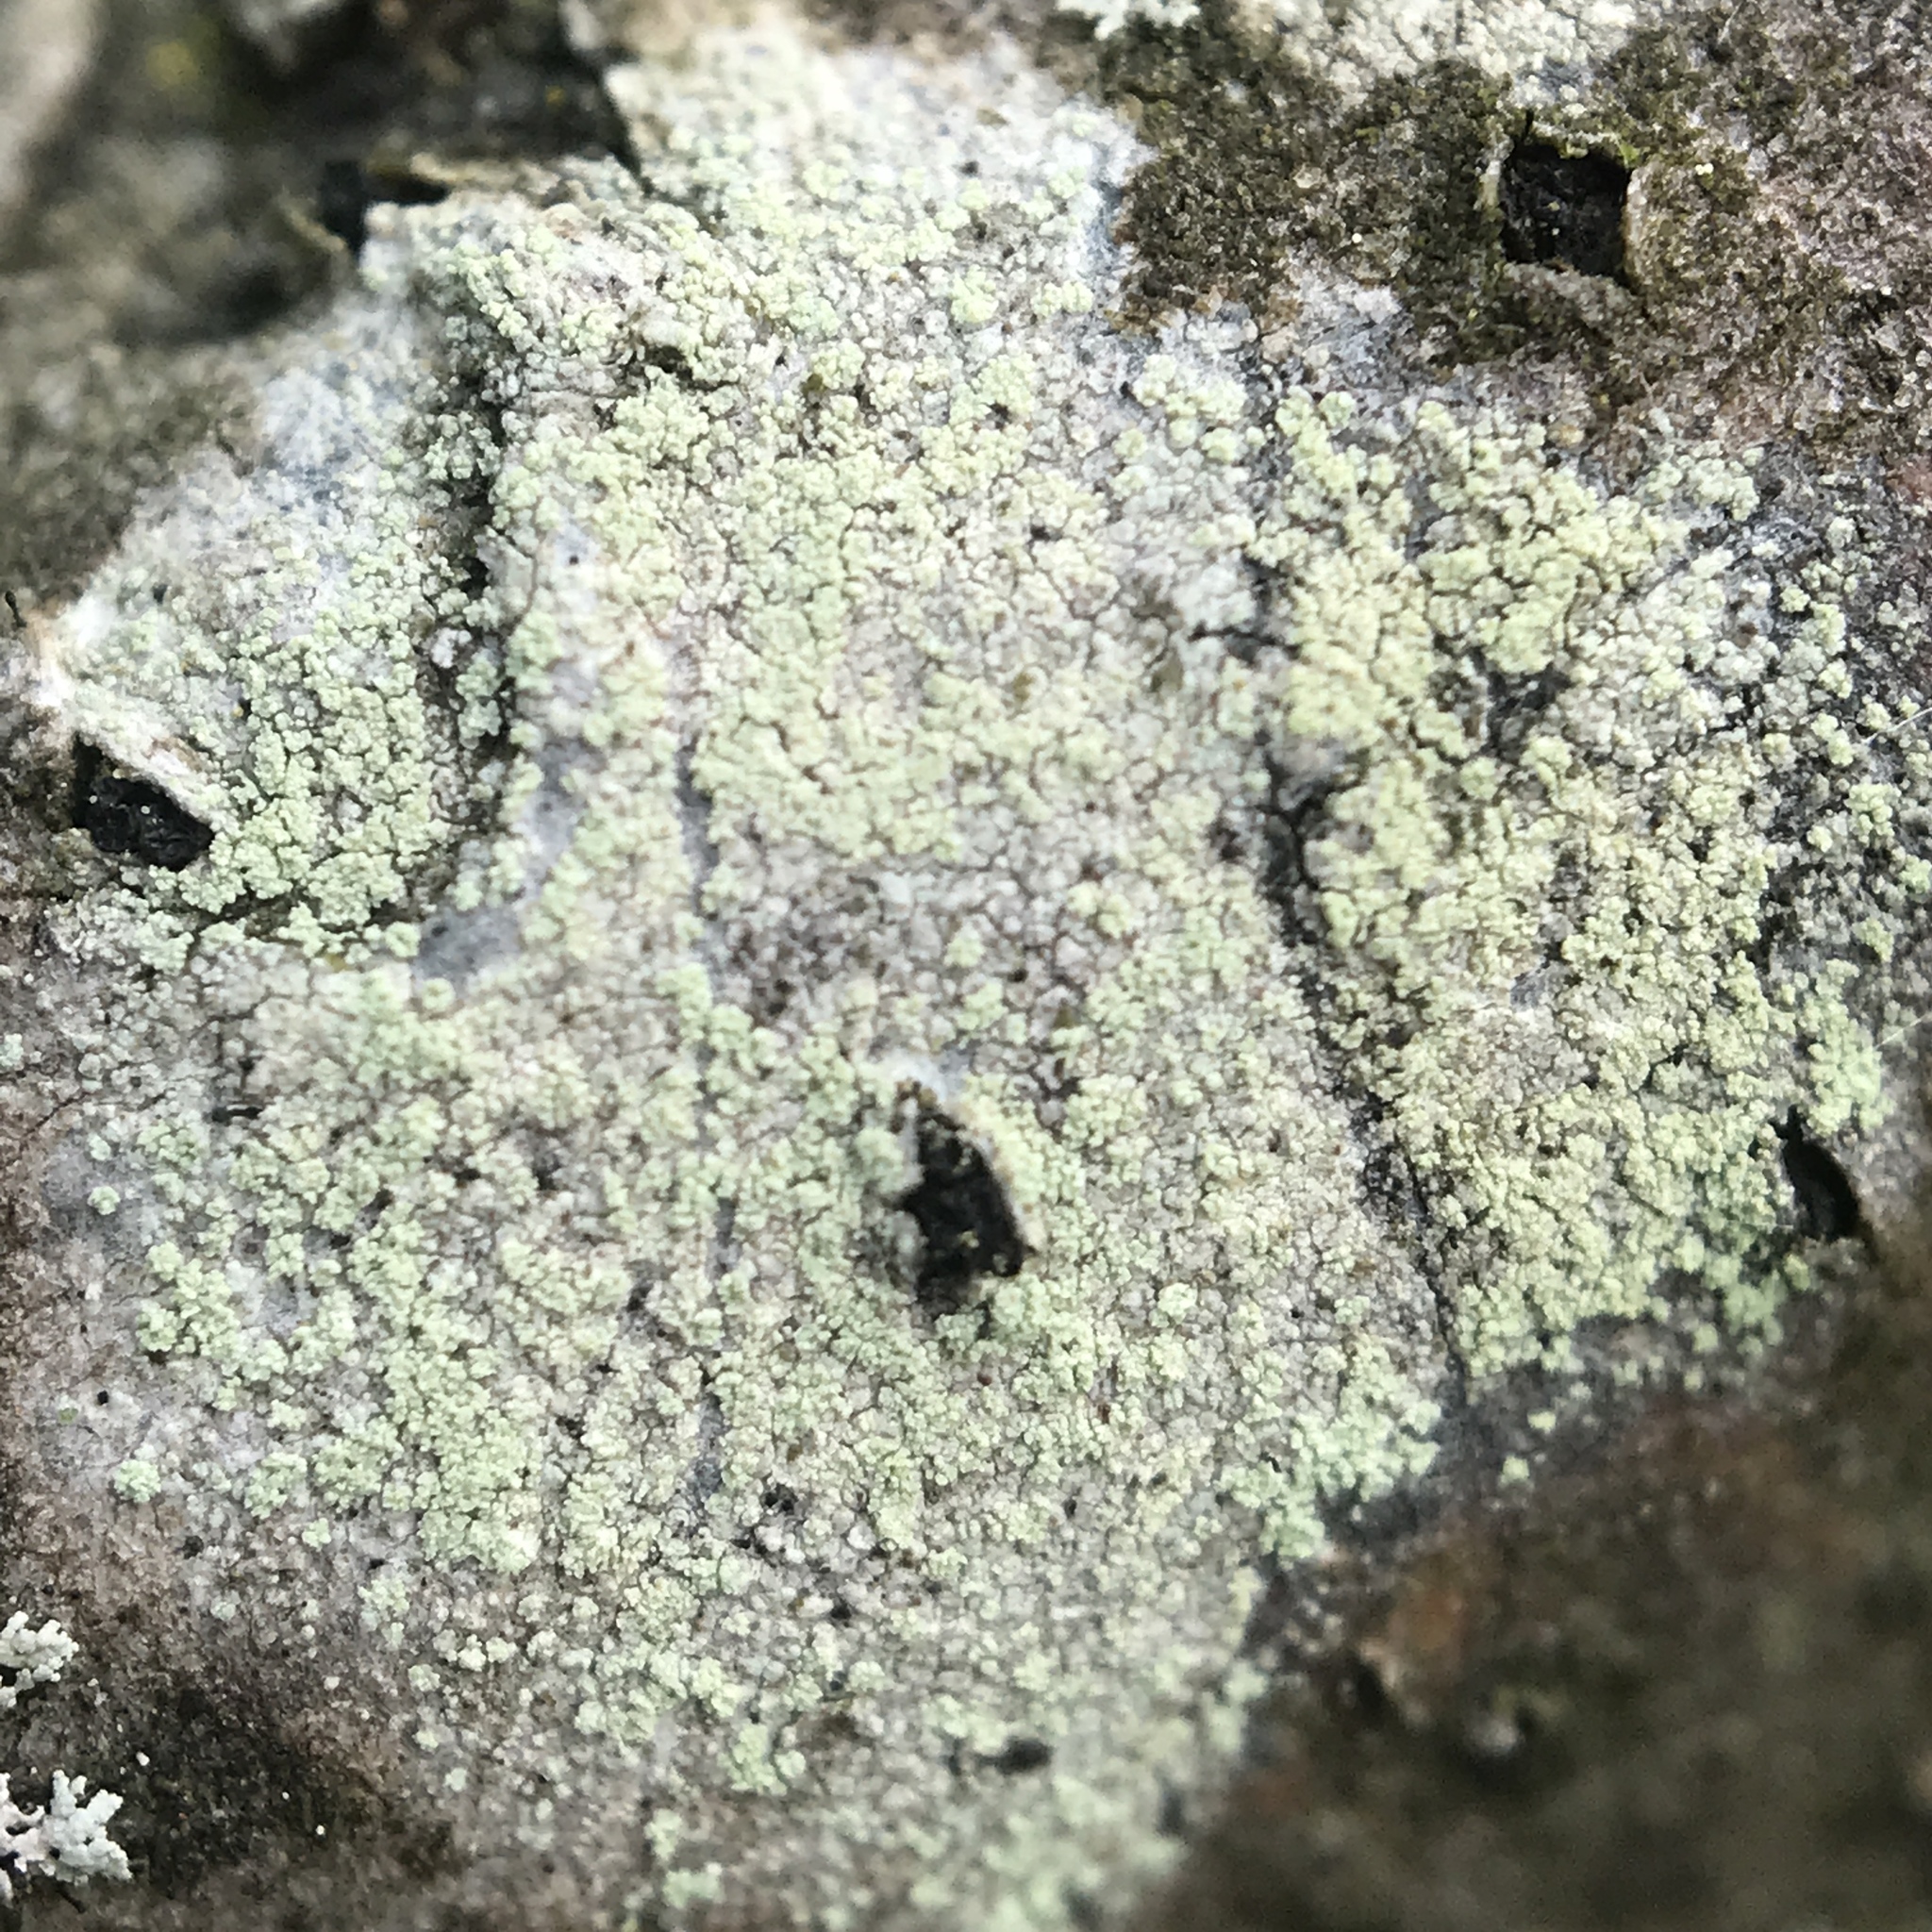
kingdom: Fungi
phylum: Ascomycota
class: Lecanoromycetes
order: Pertusariales
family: Ochrolechiaceae
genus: Ochrolechia
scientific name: Ochrolechia arborea
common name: Tree saucer lichen
